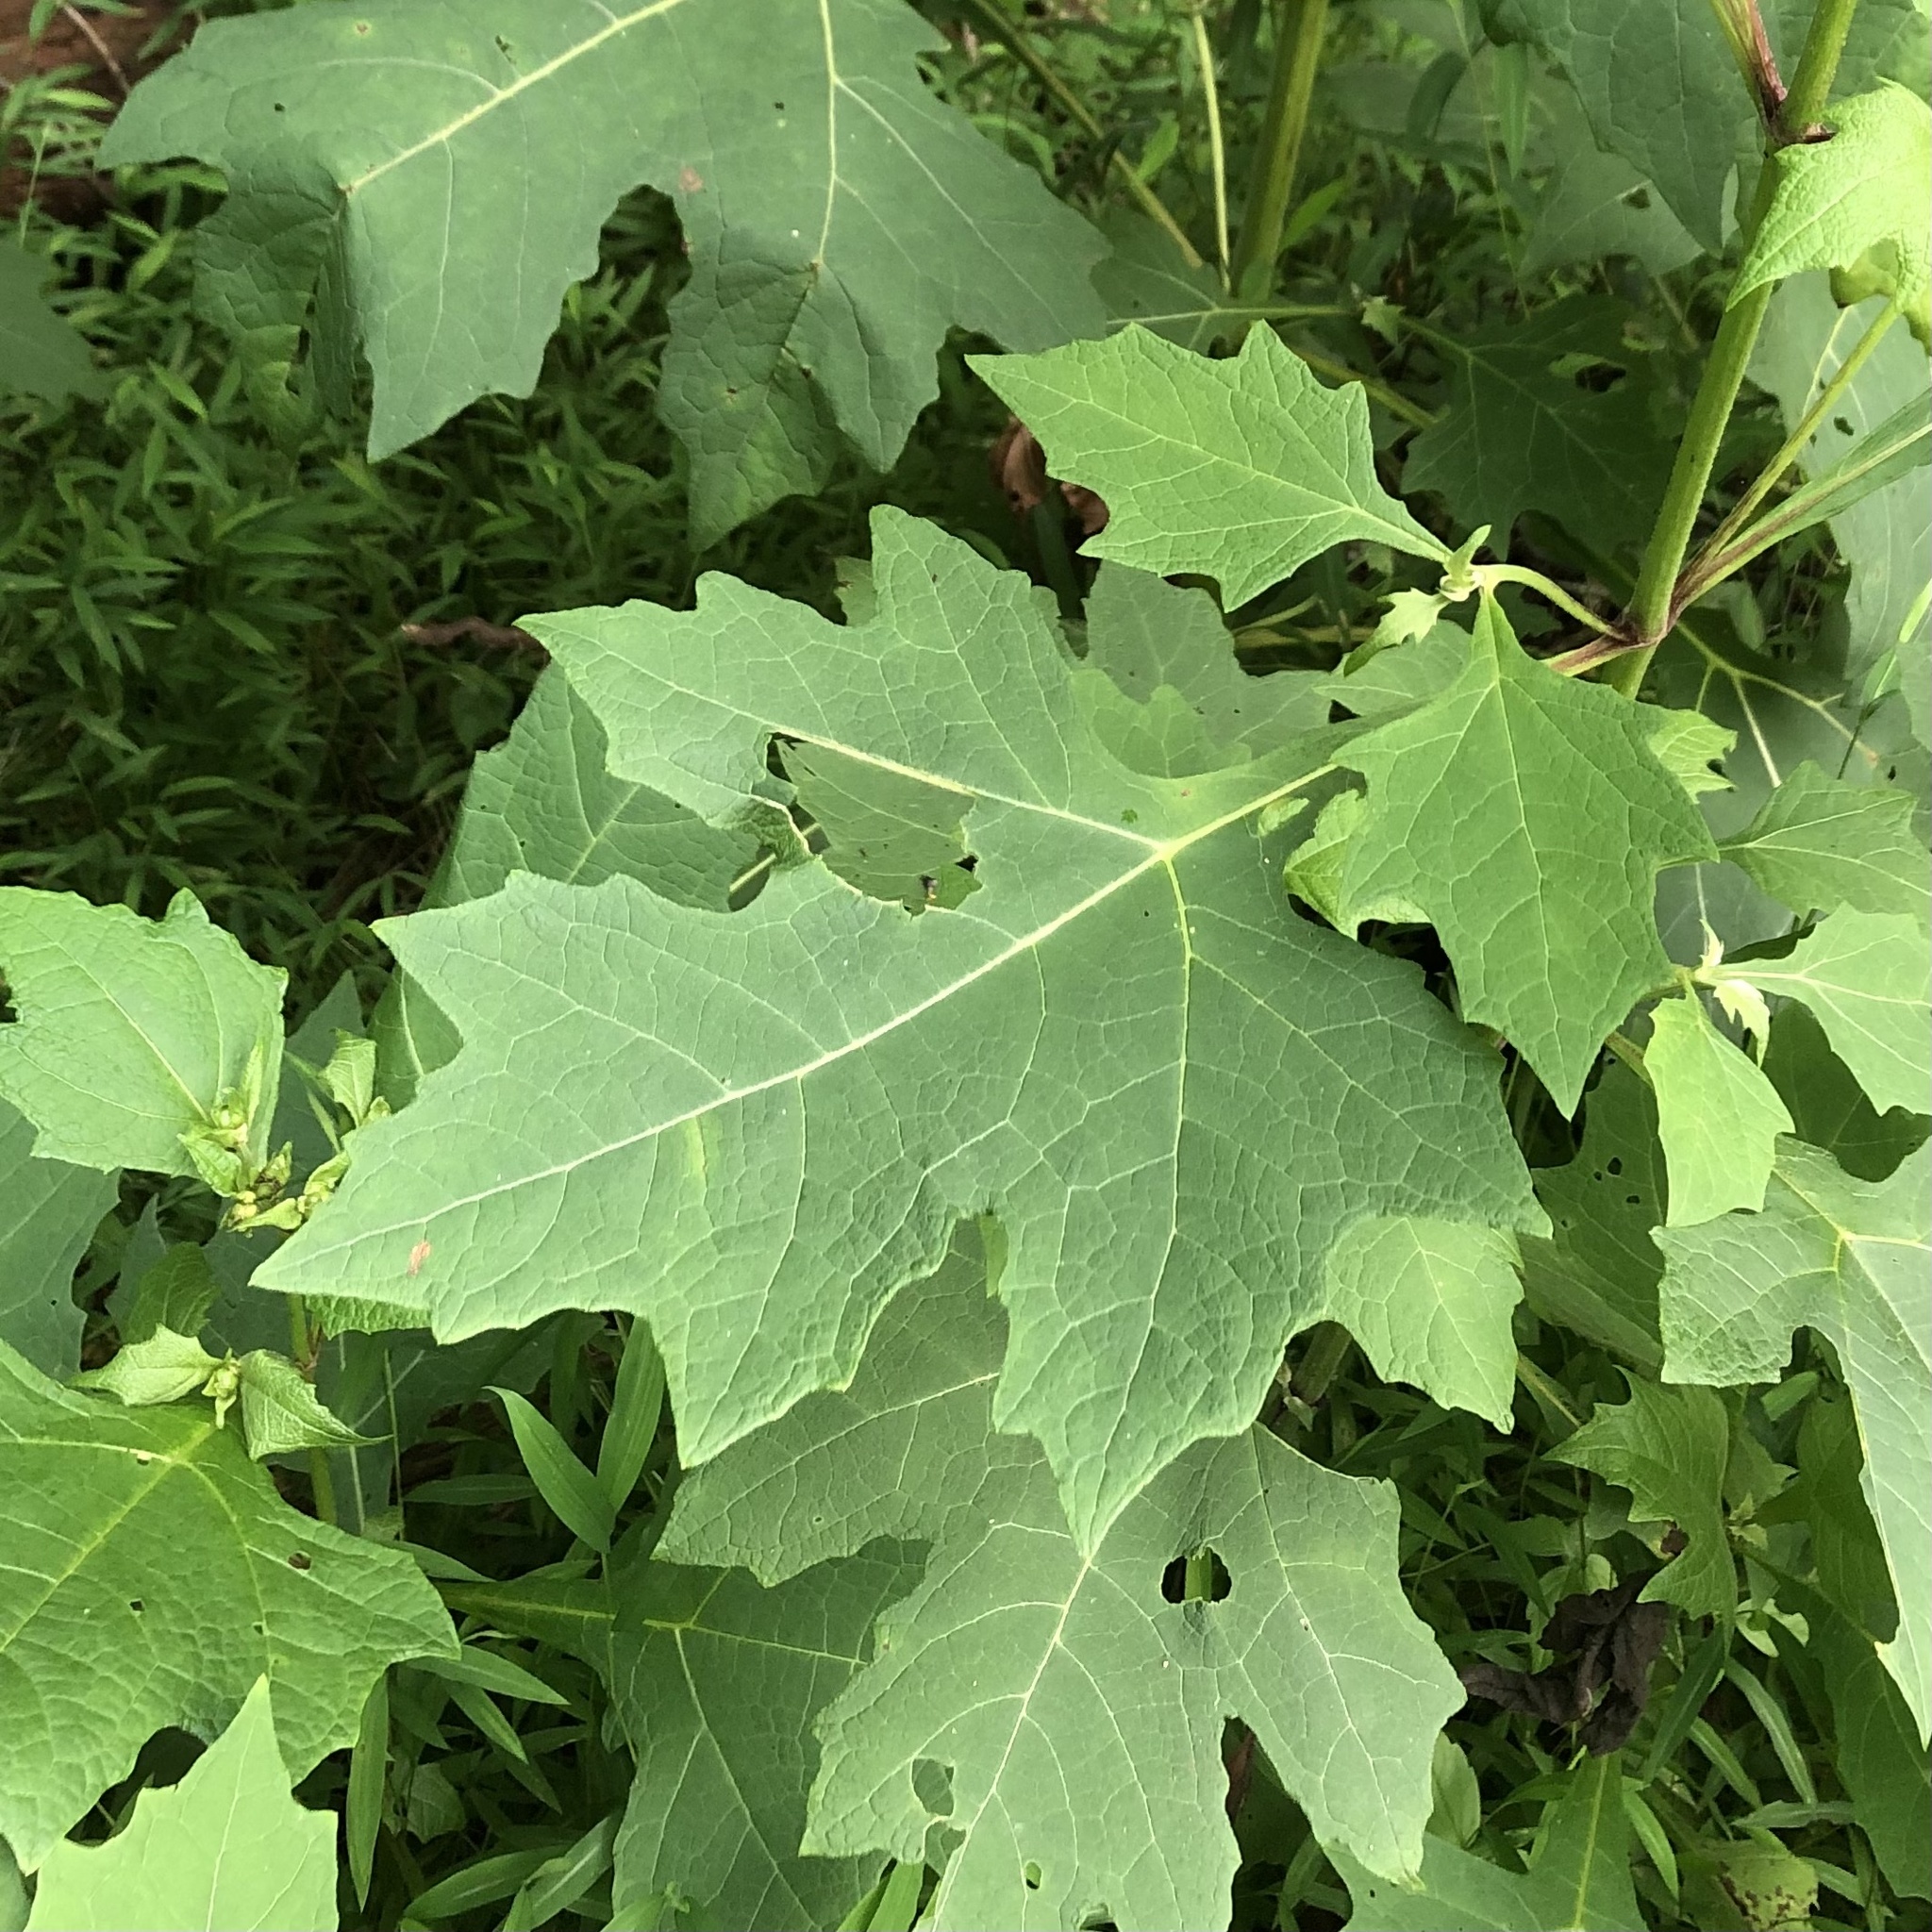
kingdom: Plantae
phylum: Tracheophyta
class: Magnoliopsida
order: Asterales
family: Asteraceae
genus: Smallanthus
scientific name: Smallanthus uvedalia
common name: Bear's-foot
